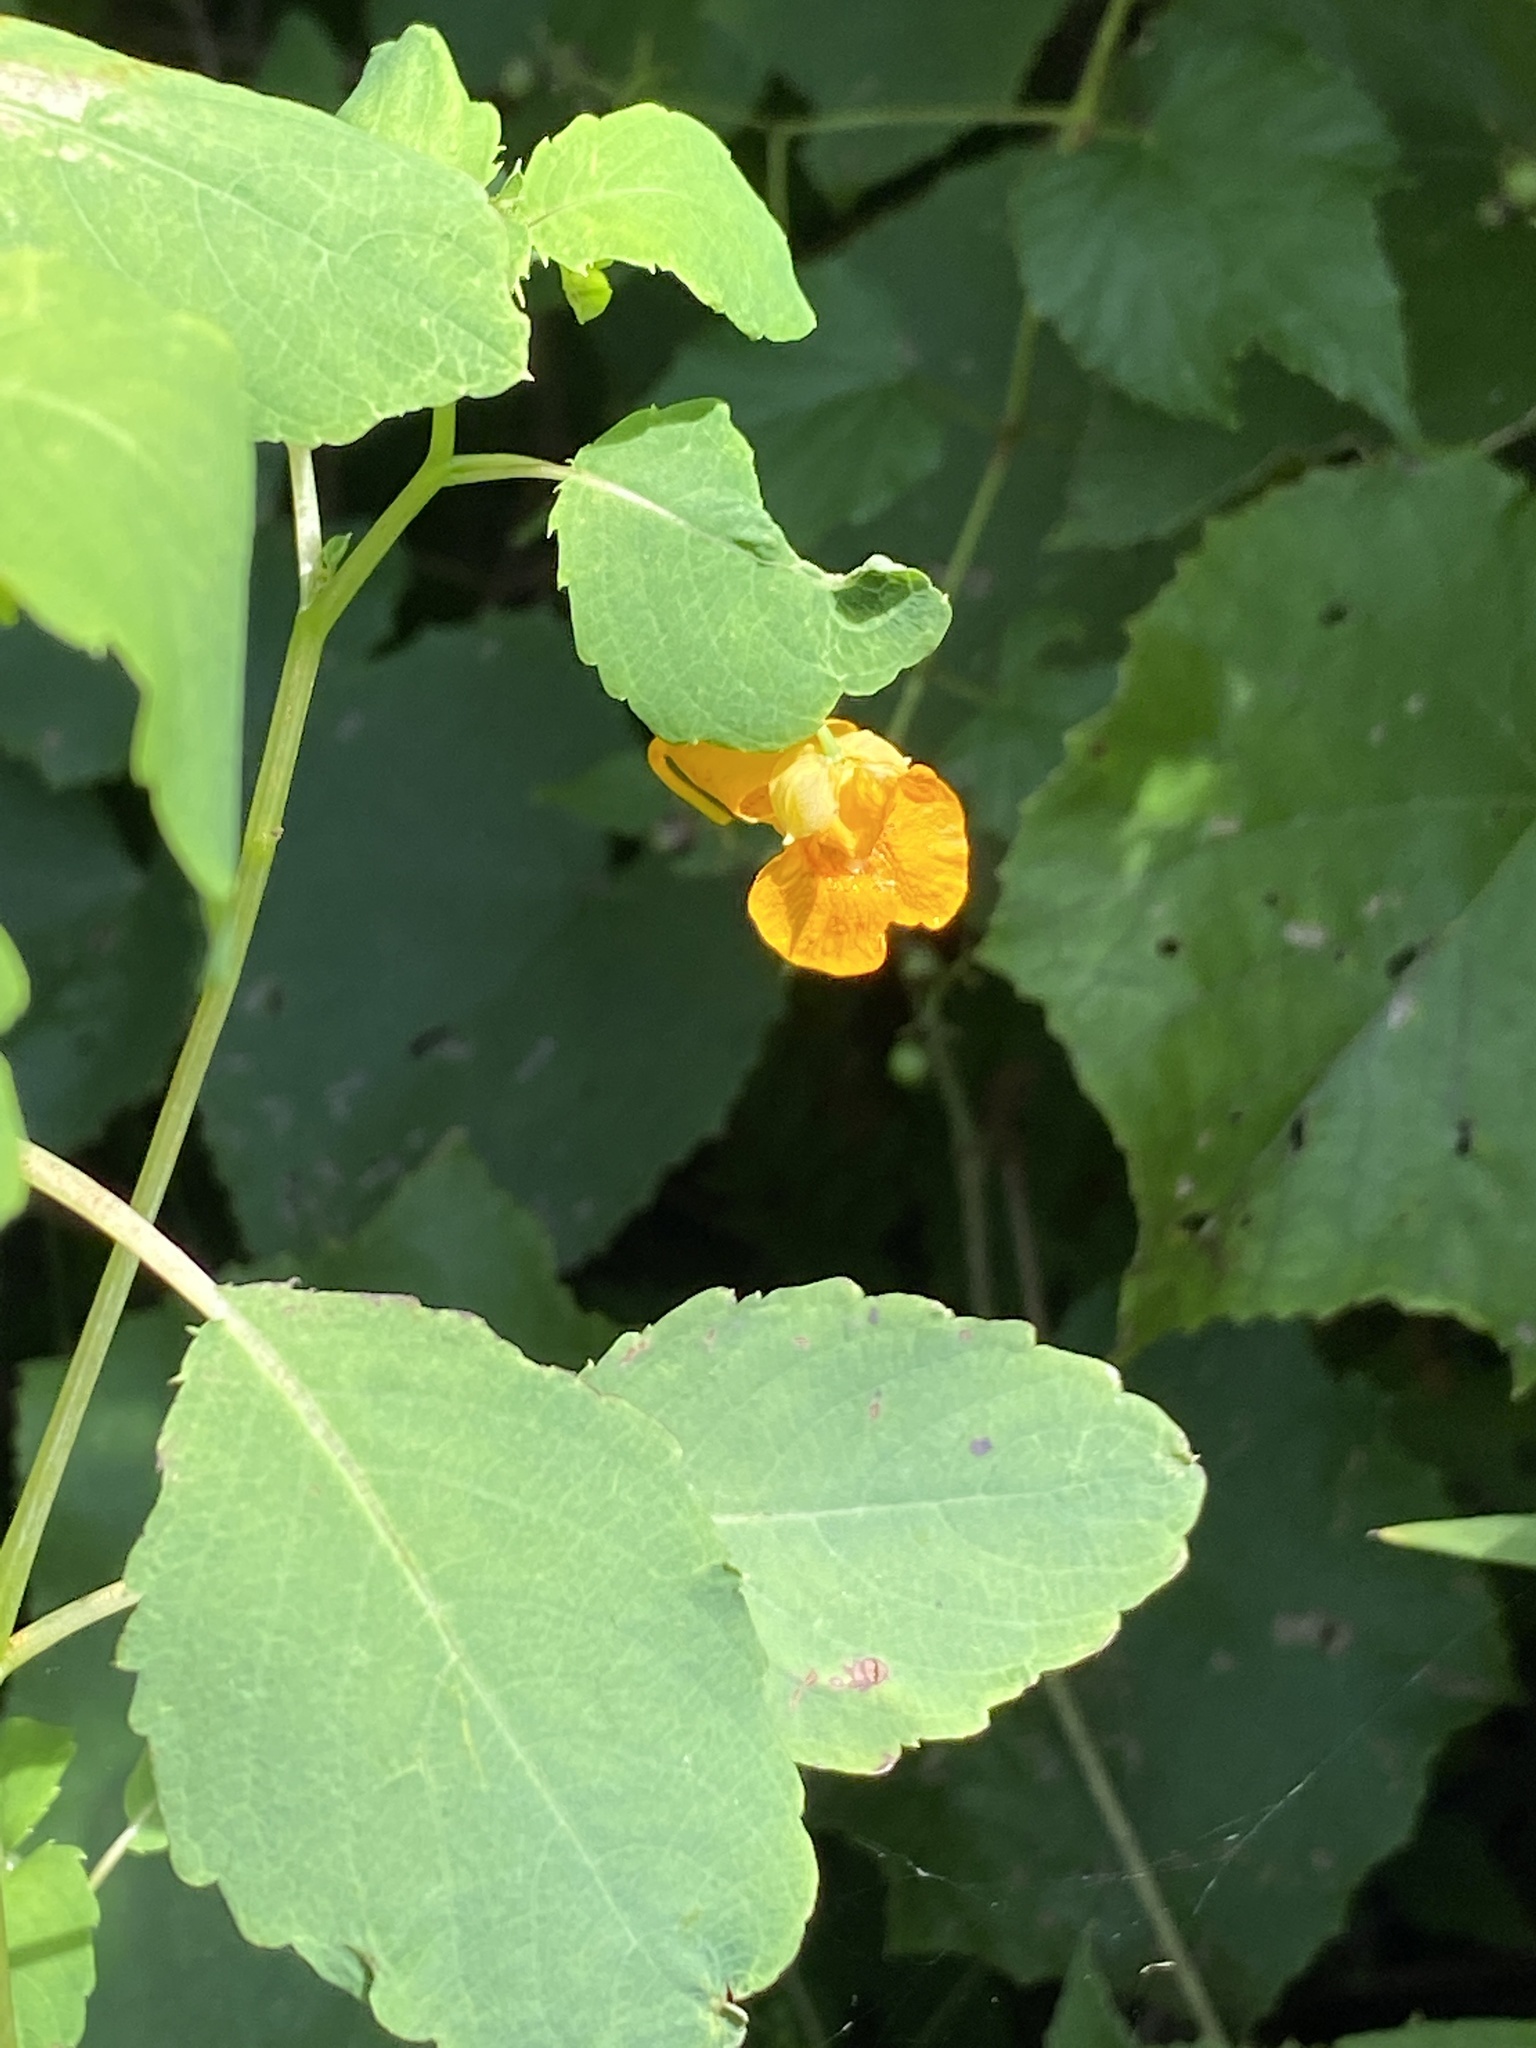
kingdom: Plantae
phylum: Tracheophyta
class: Magnoliopsida
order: Ericales
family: Balsaminaceae
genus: Impatiens
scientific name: Impatiens capensis
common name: Orange balsam
